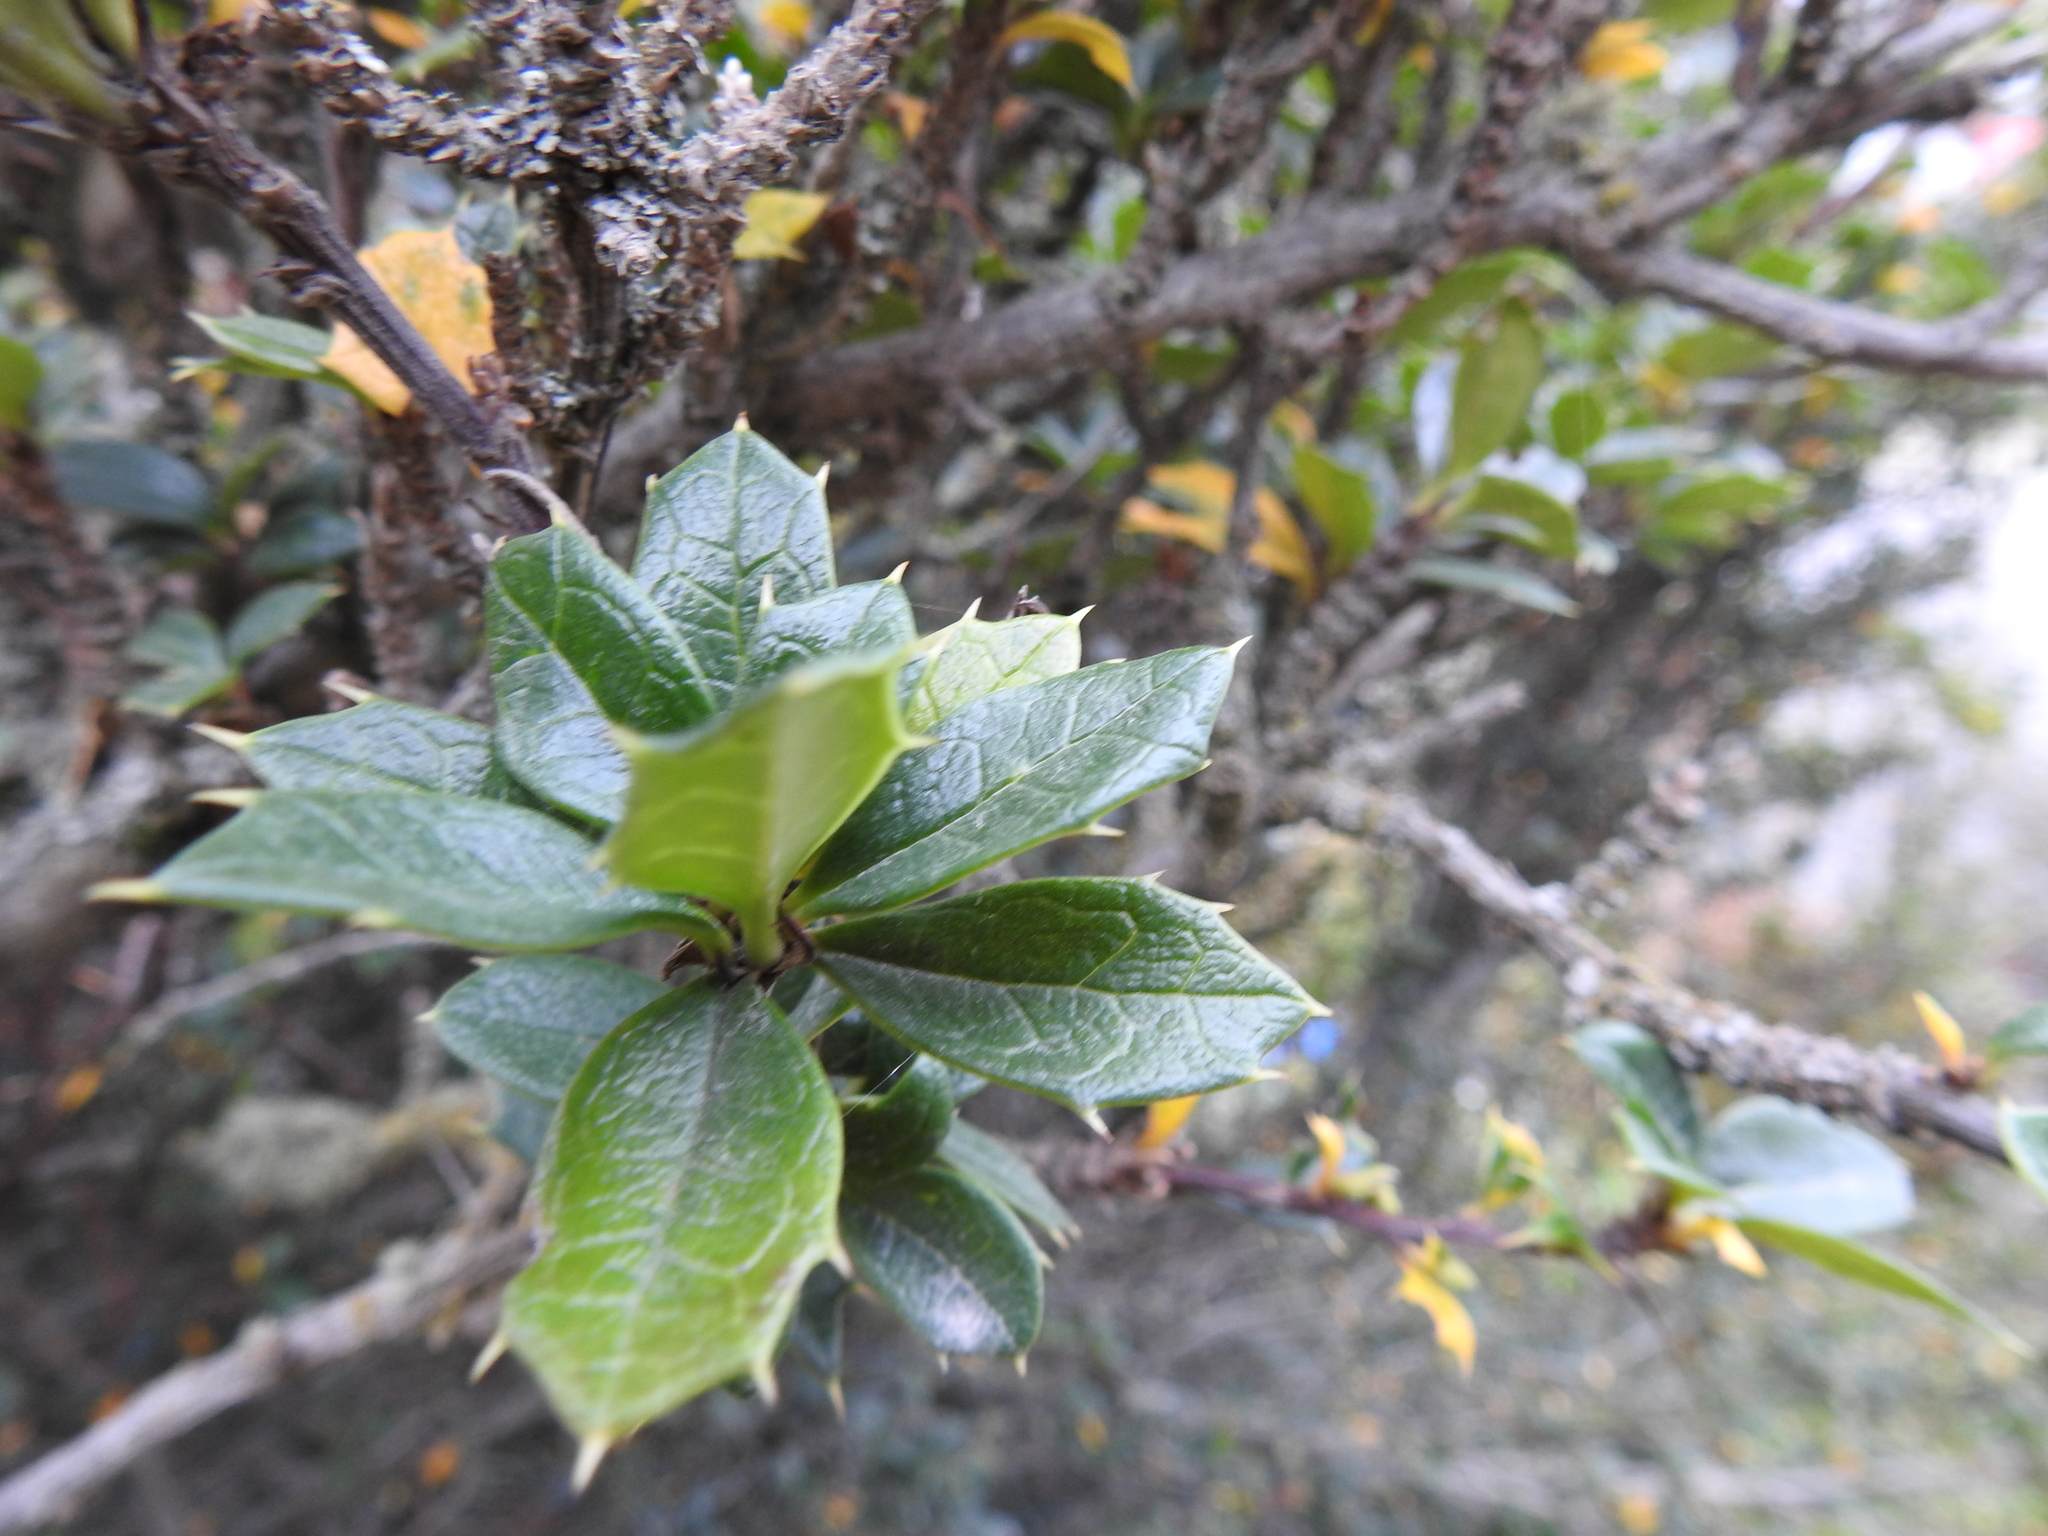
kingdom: Plantae
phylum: Tracheophyta
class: Magnoliopsida
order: Ranunculales
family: Berberidaceae
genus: Berberis
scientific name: Berberis ilicifolia
